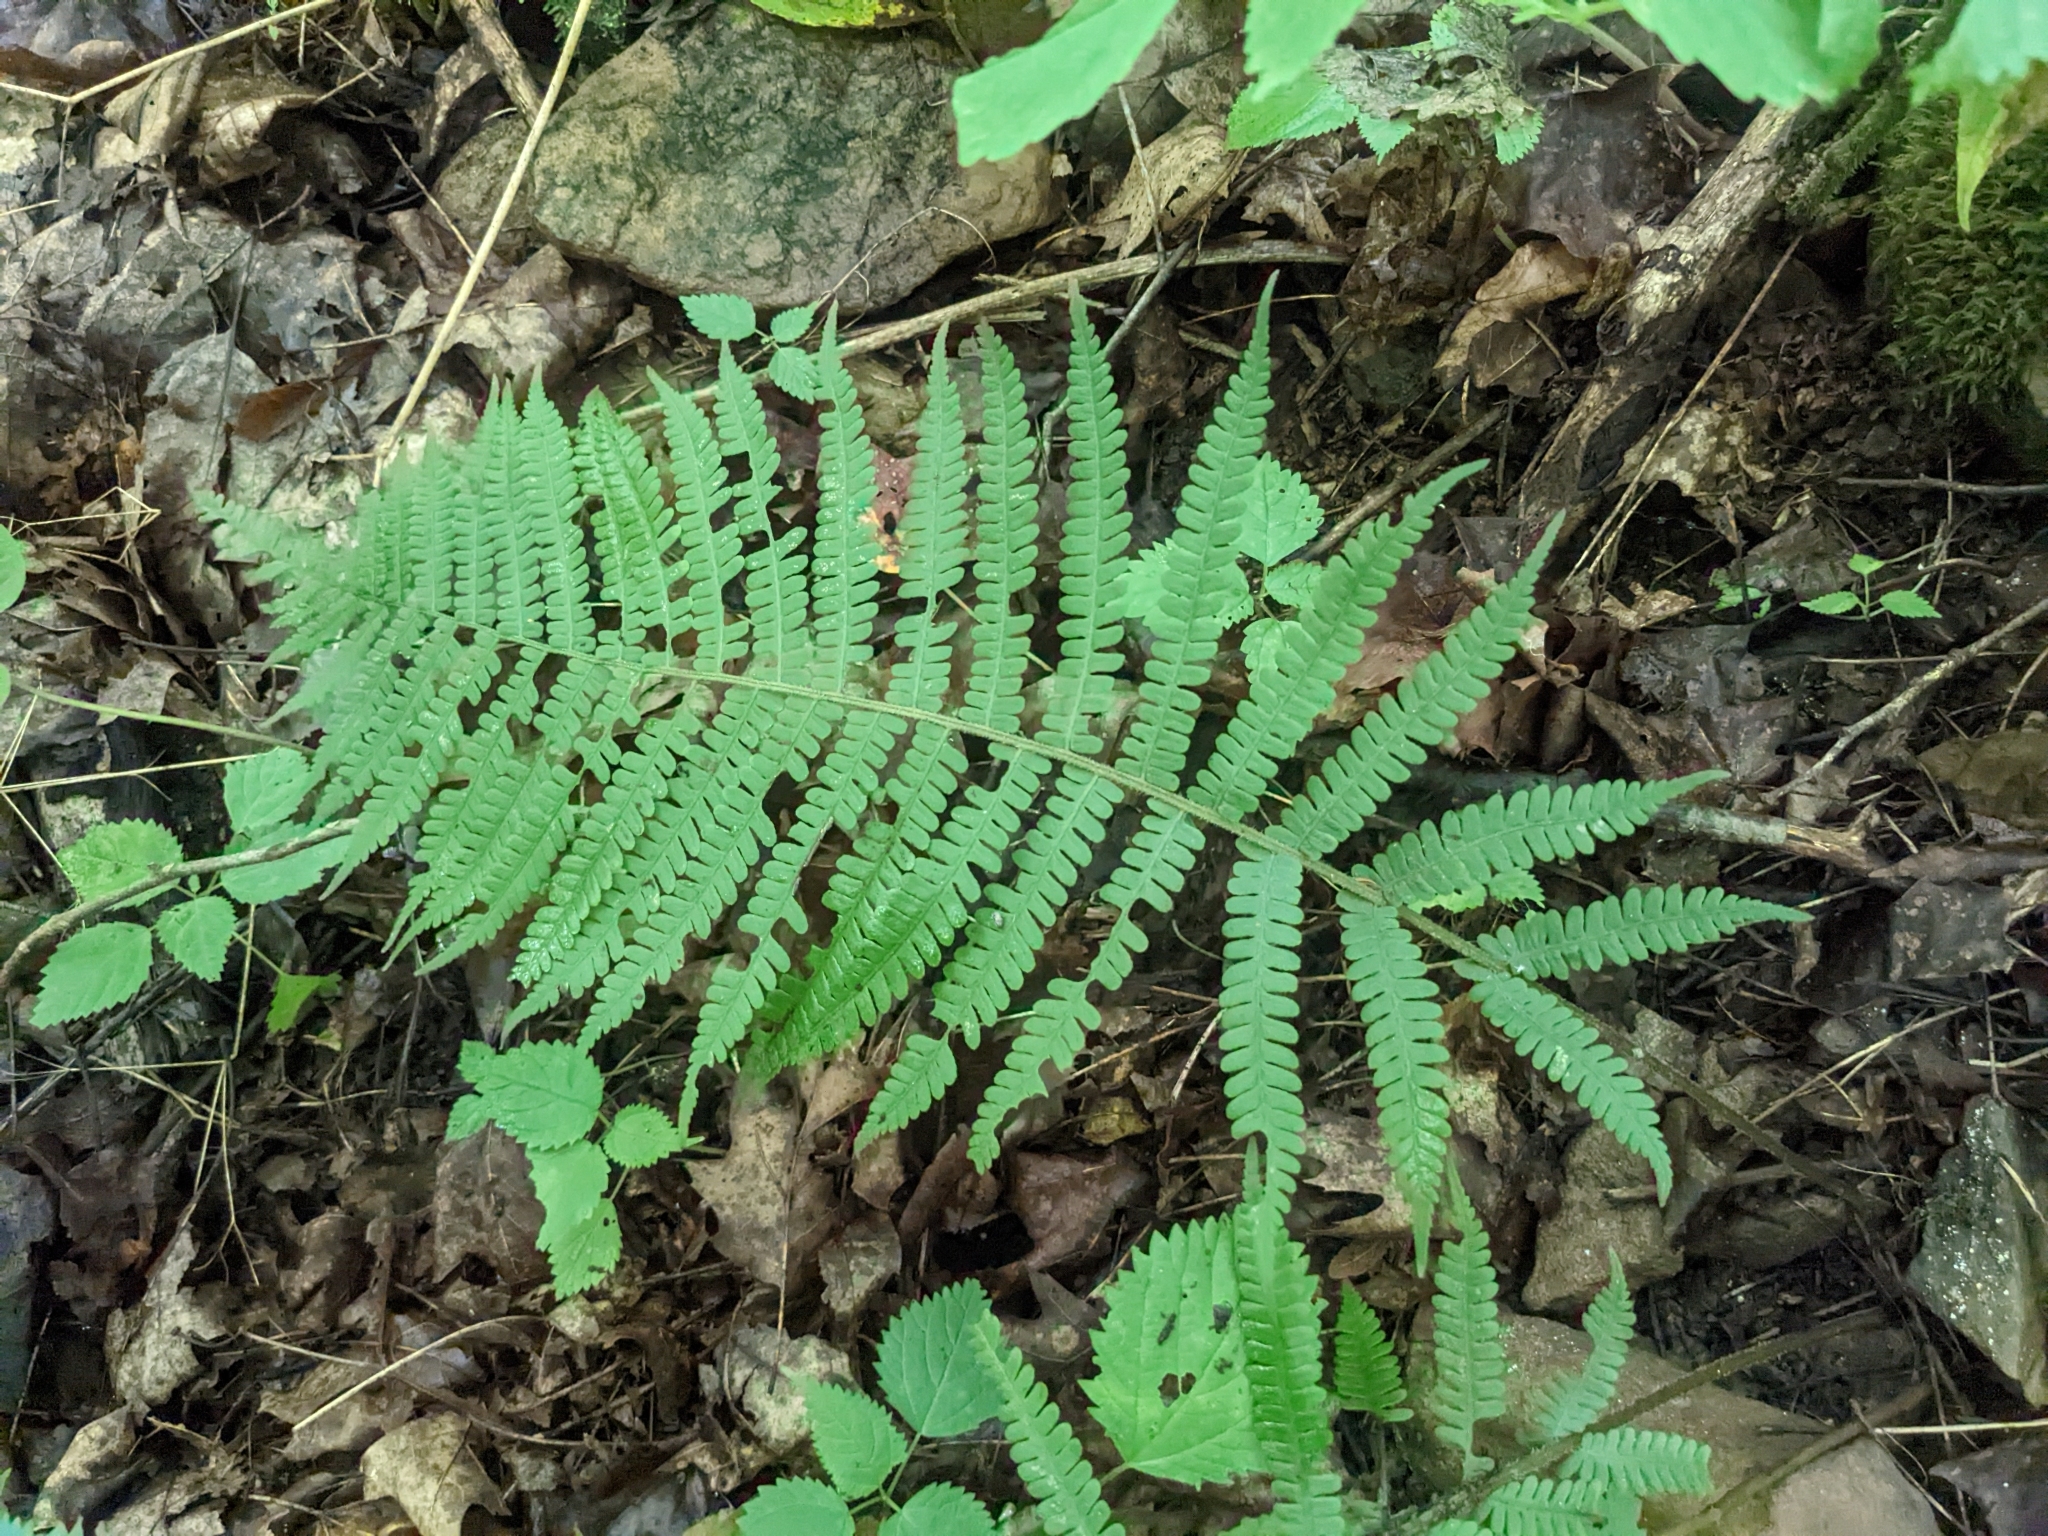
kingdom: Plantae
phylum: Tracheophyta
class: Polypodiopsida
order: Polypodiales
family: Athyriaceae
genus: Deparia
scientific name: Deparia acrostichoides
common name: Silver false spleenwort
